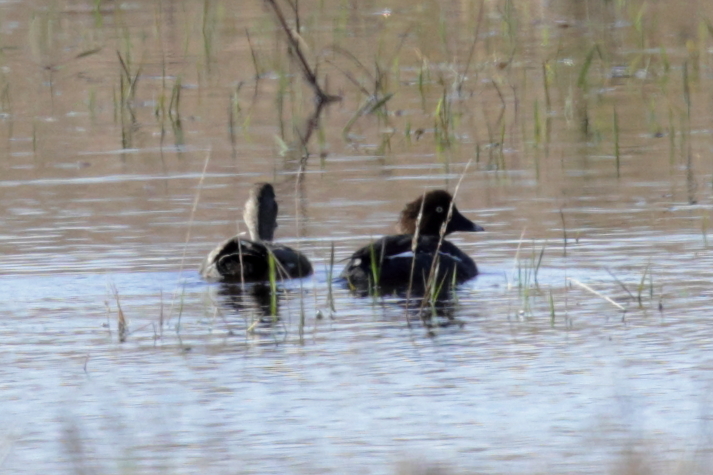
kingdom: Animalia
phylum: Chordata
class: Aves
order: Anseriformes
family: Anatidae
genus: Bucephala
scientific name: Bucephala clangula
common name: Common goldeneye
